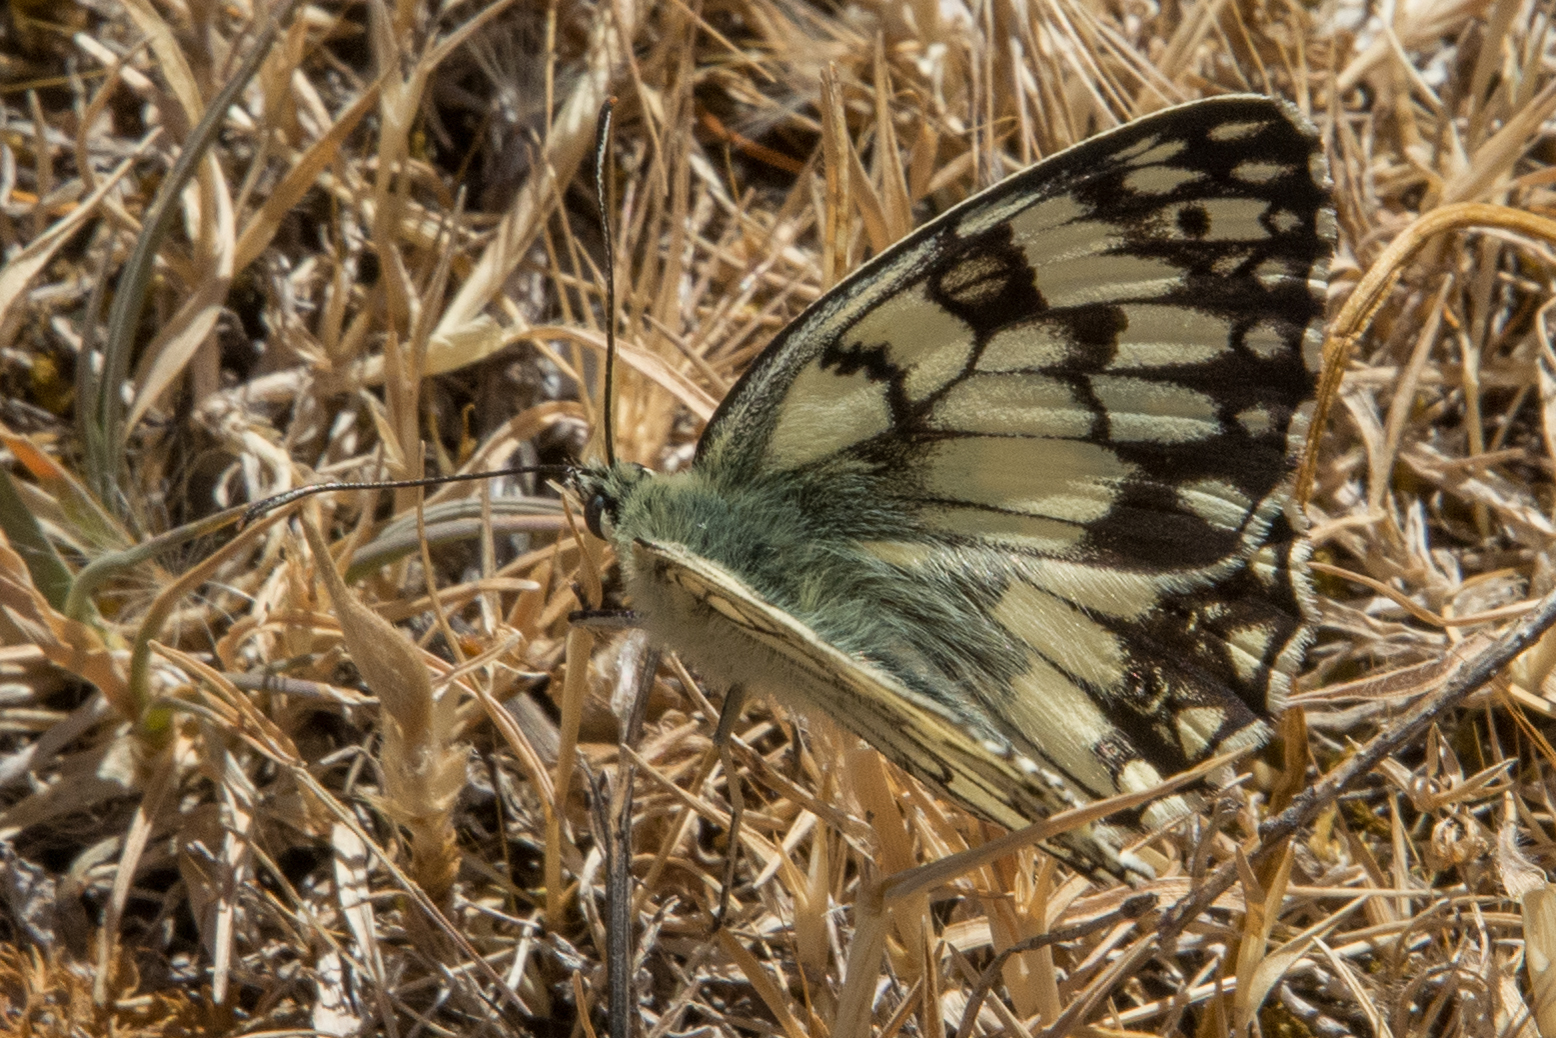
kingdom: Animalia
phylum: Arthropoda
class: Insecta
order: Lepidoptera
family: Nymphalidae
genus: Melanargia
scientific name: Melanargia japygia
